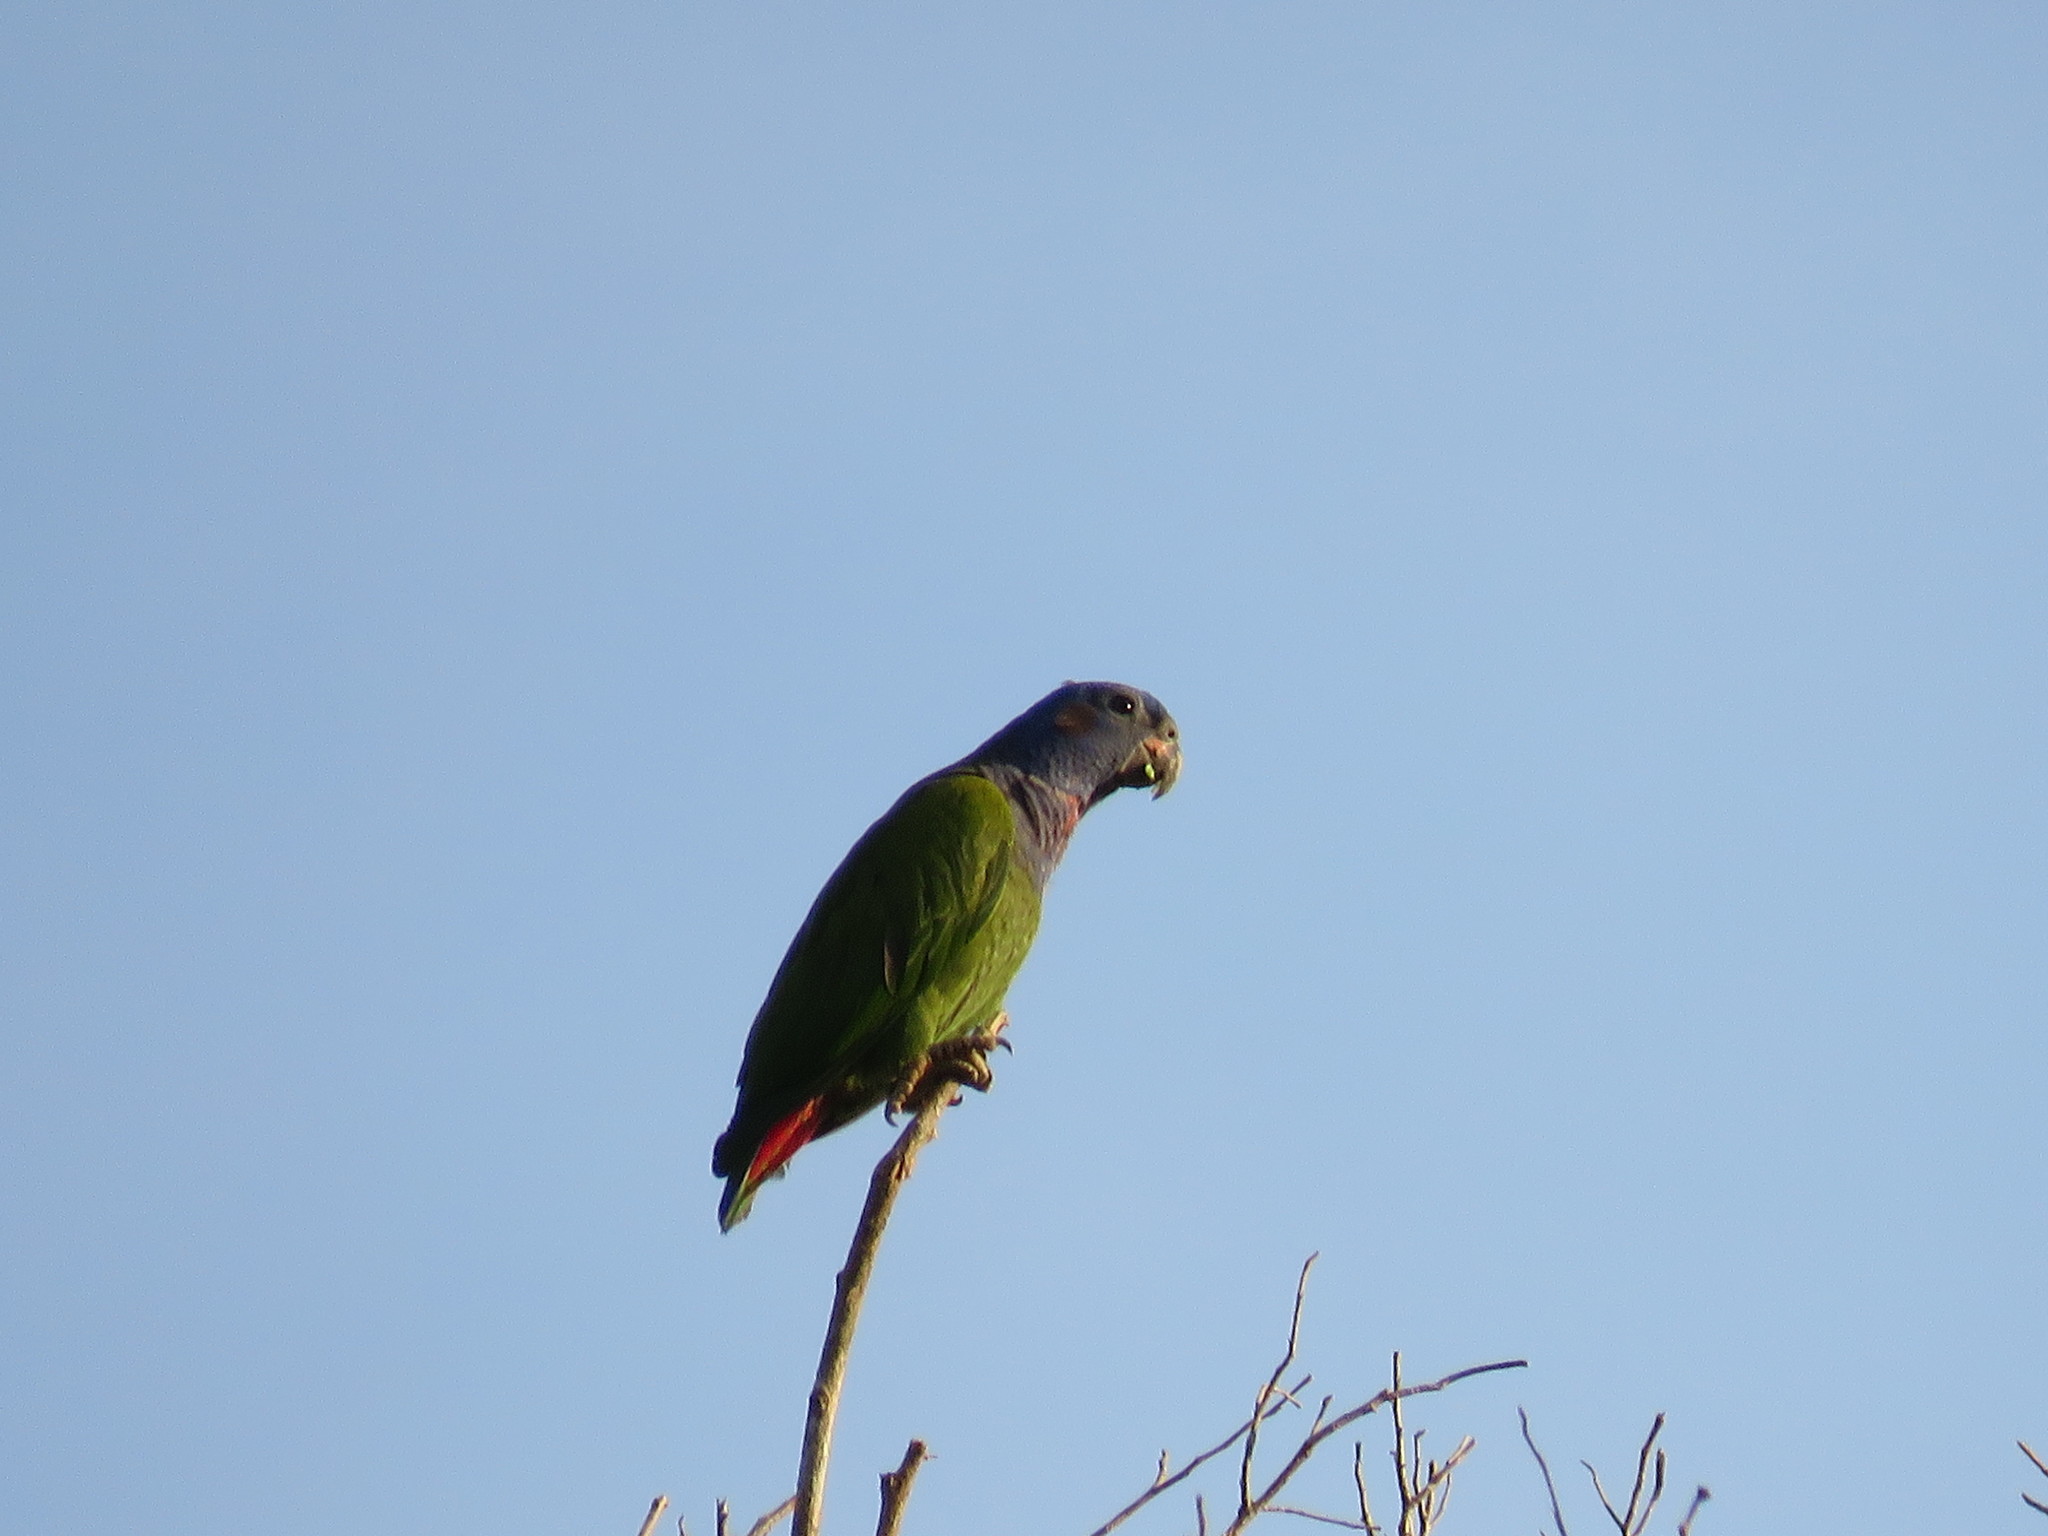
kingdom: Animalia
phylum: Chordata
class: Aves
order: Psittaciformes
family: Psittacidae
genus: Pionus
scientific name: Pionus menstruus
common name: Blue-headed parrot
